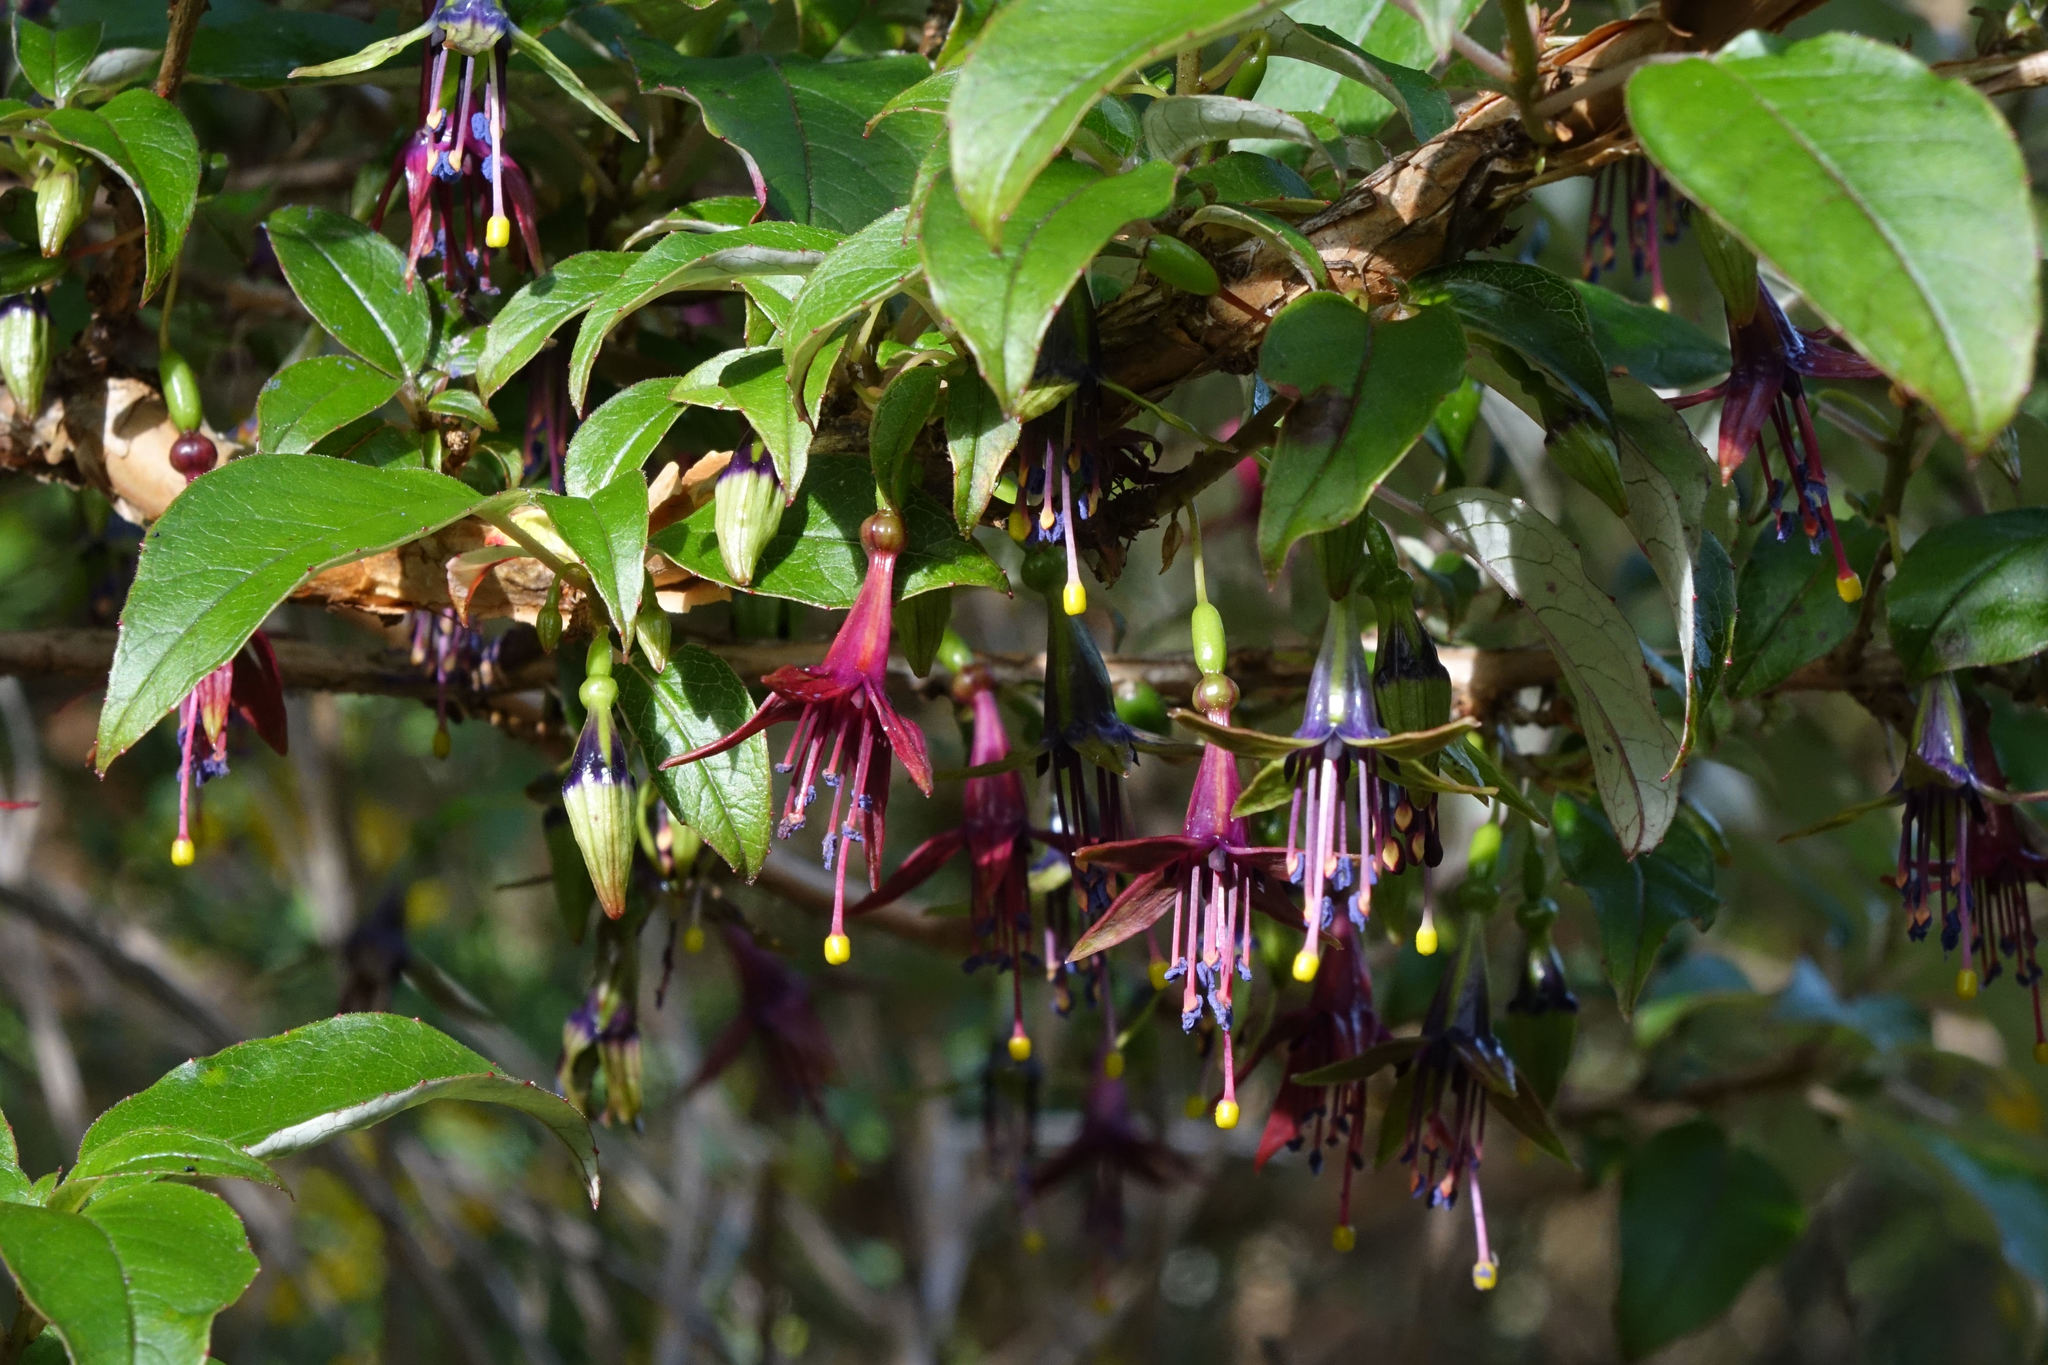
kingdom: Plantae
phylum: Tracheophyta
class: Magnoliopsida
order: Myrtales
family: Onagraceae
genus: Fuchsia
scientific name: Fuchsia excorticata
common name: Tree fuchsia
